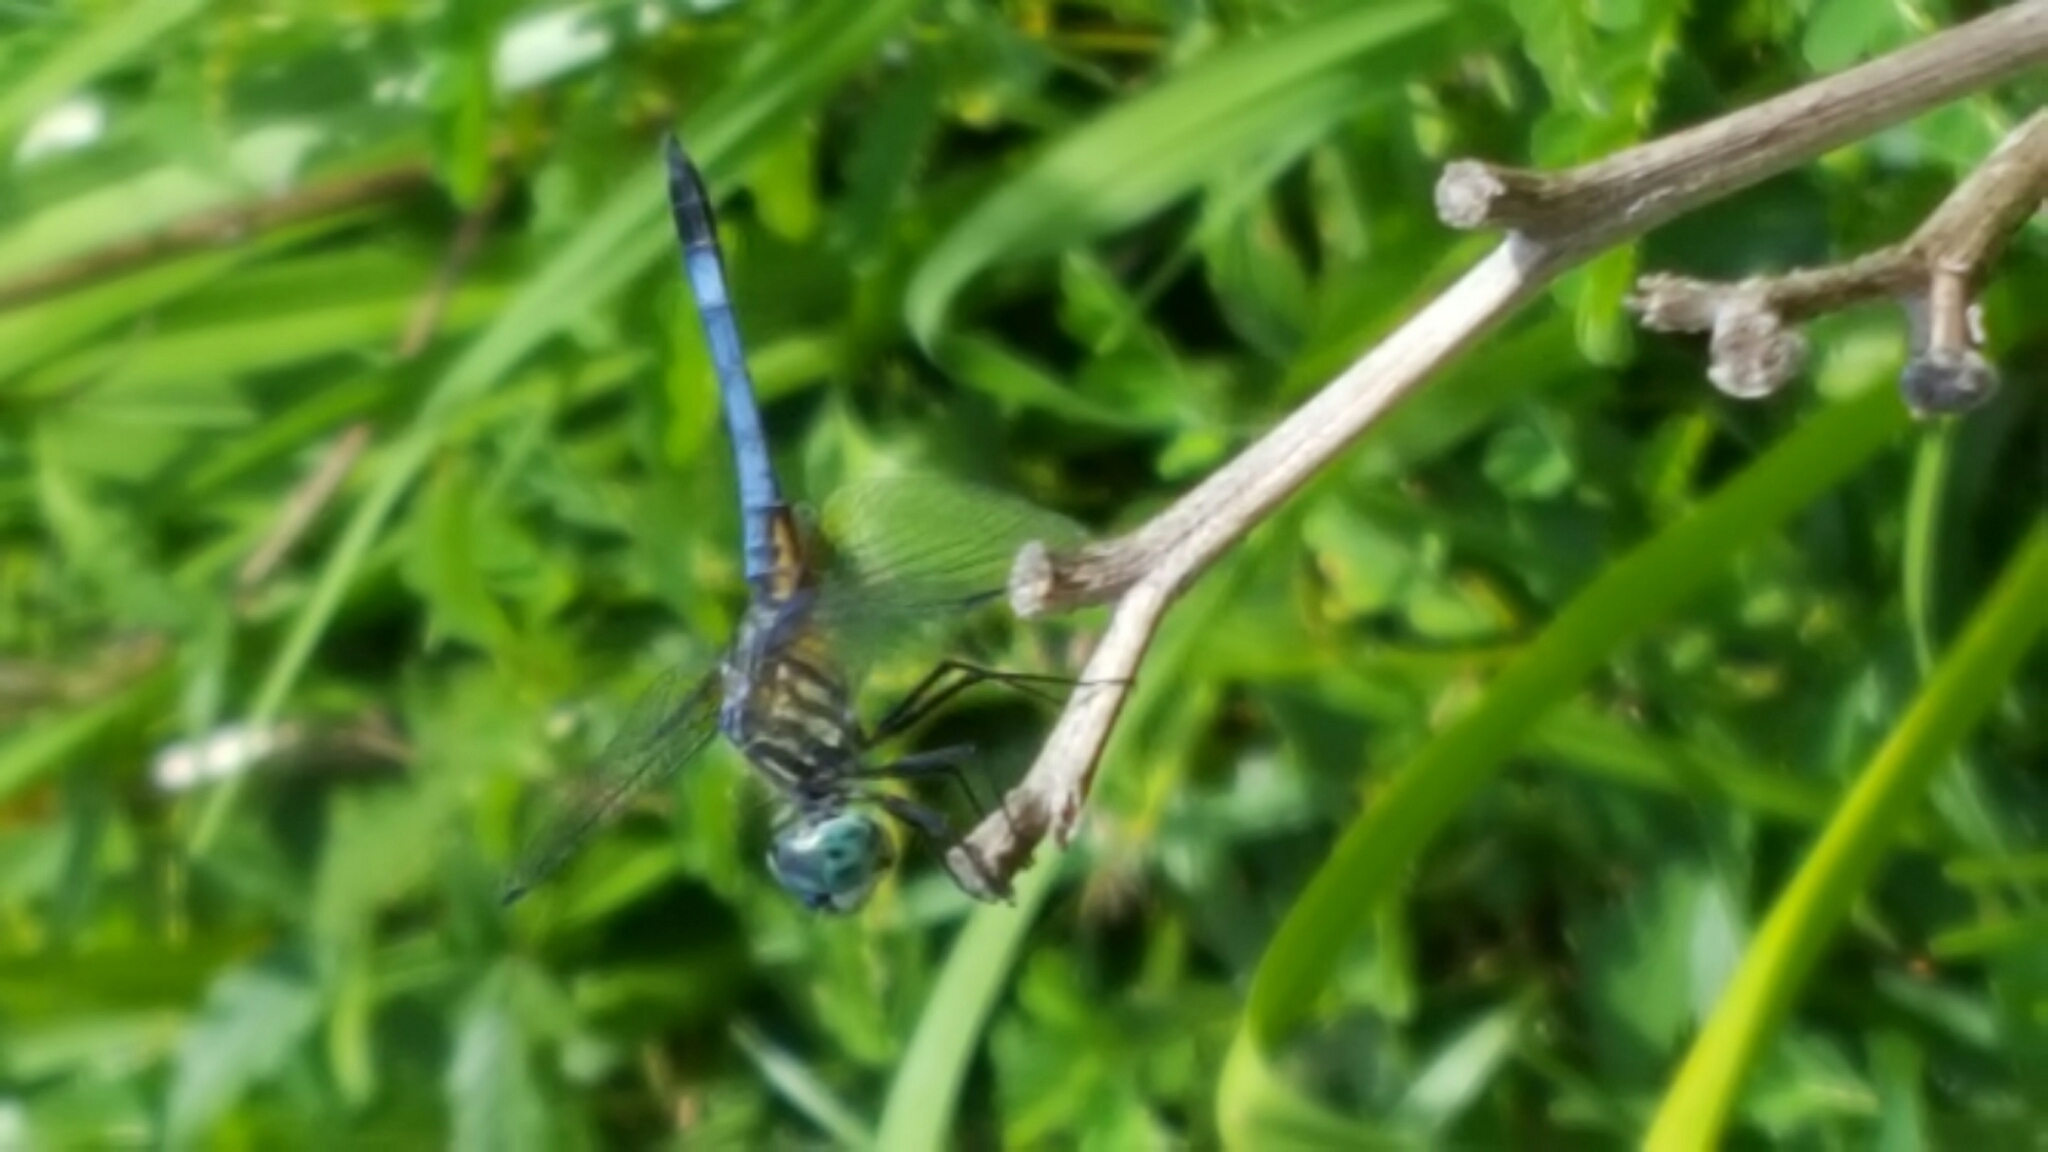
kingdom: Animalia
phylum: Arthropoda
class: Insecta
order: Odonata
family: Libellulidae
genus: Pachydiplax
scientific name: Pachydiplax longipennis
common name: Blue dasher
